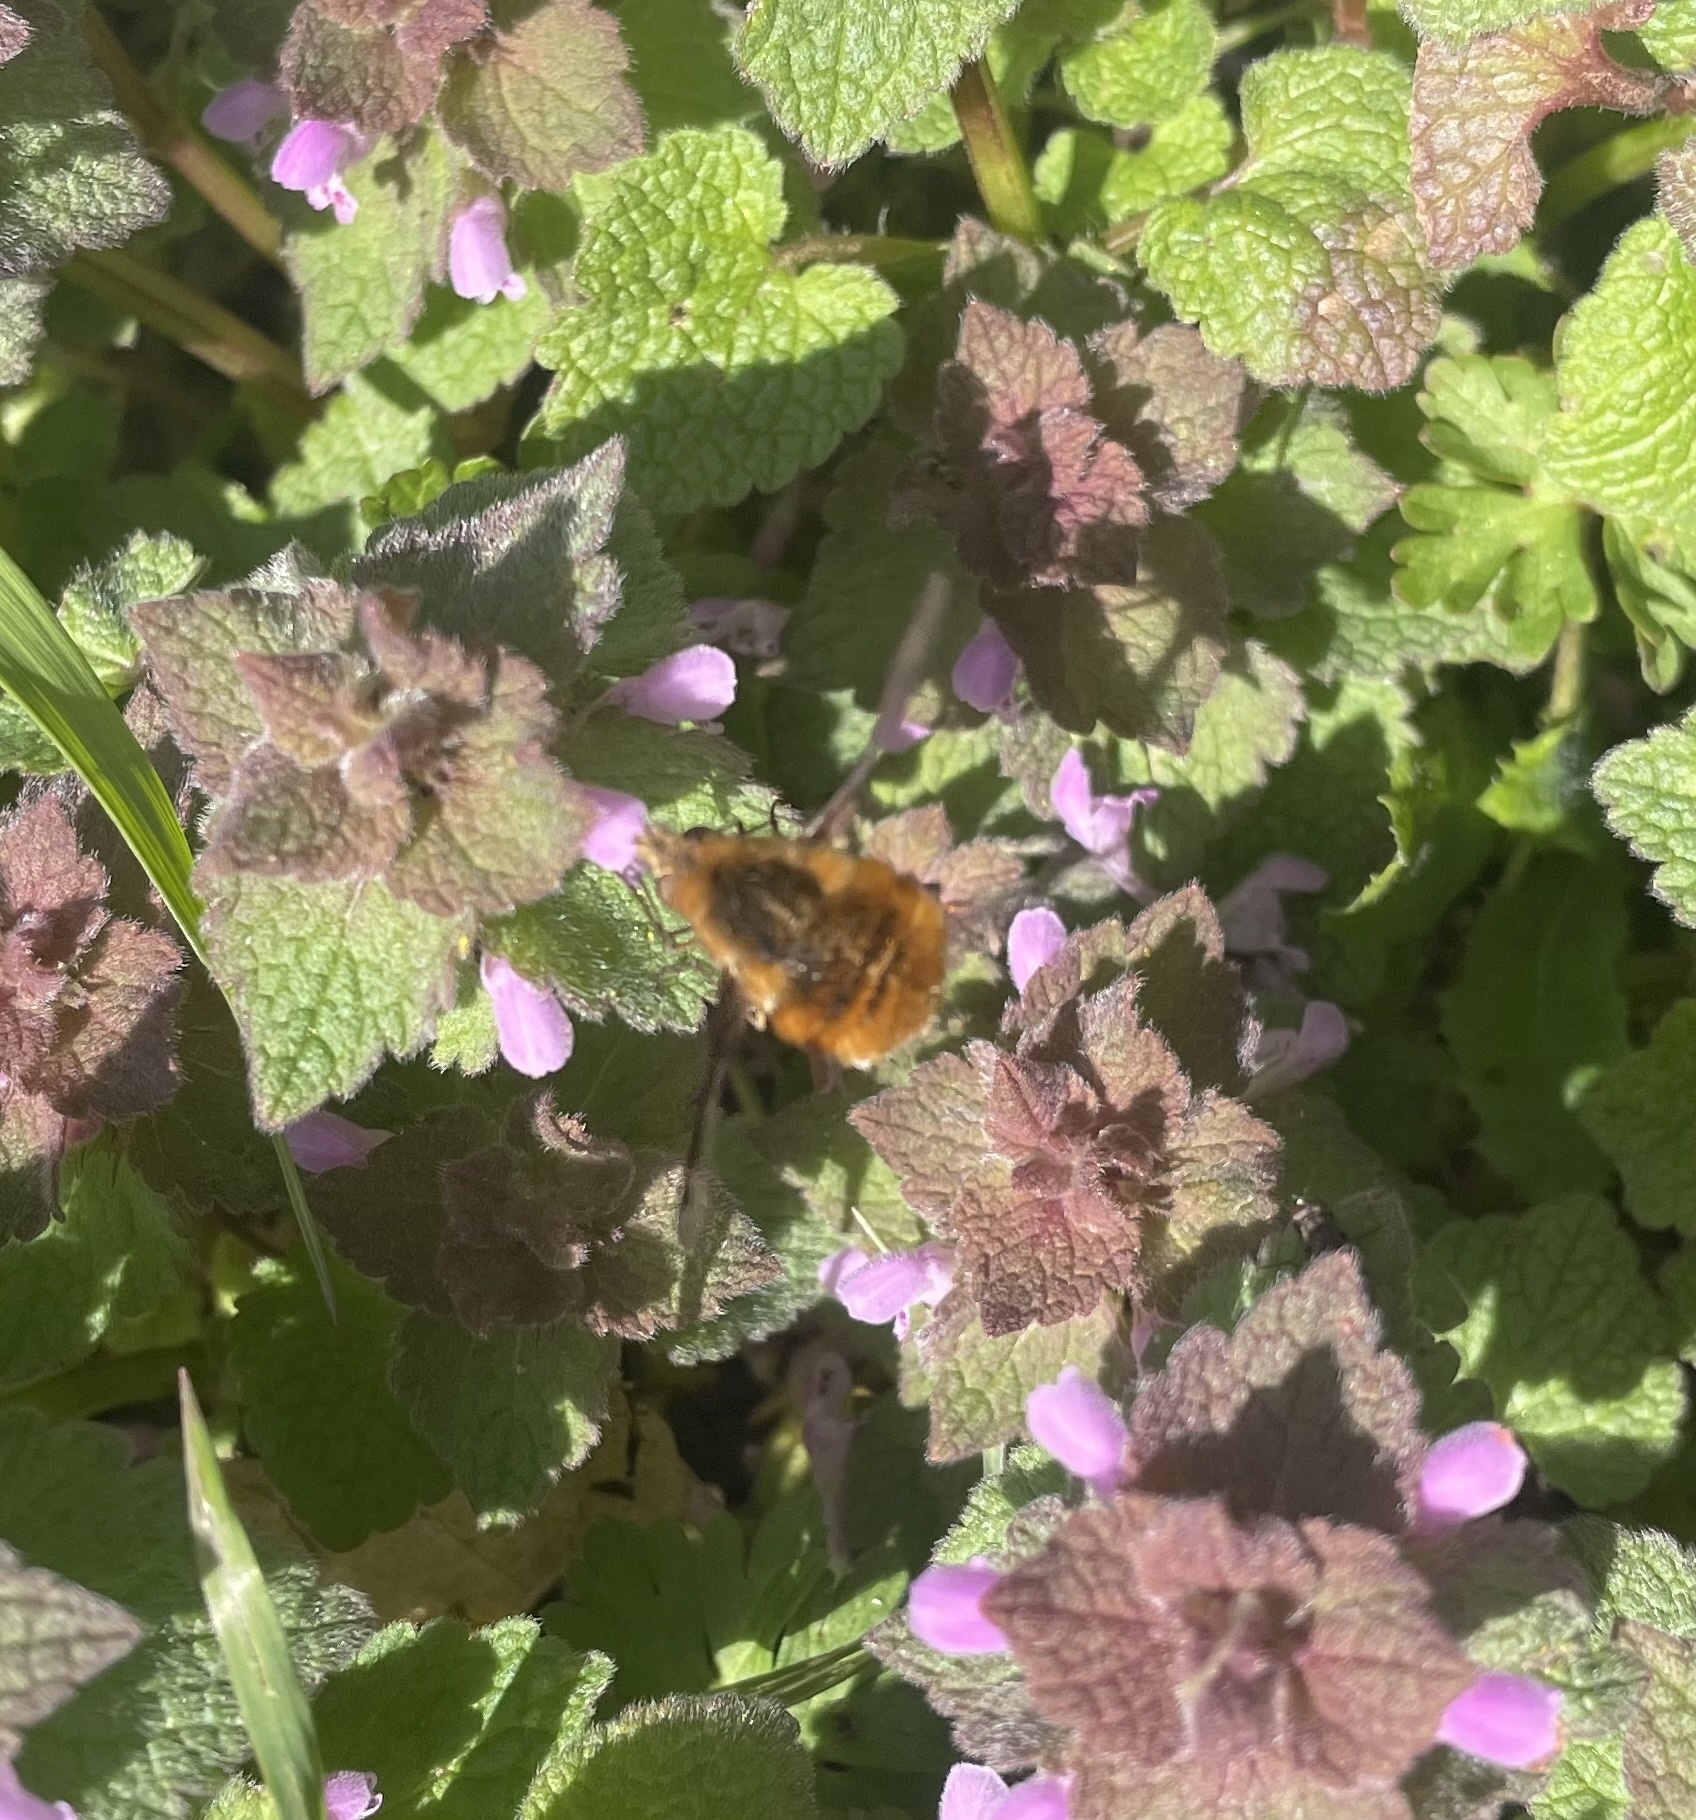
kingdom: Animalia
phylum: Arthropoda
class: Insecta
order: Diptera
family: Bombyliidae
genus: Bombylius
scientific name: Bombylius major
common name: Bee fly
